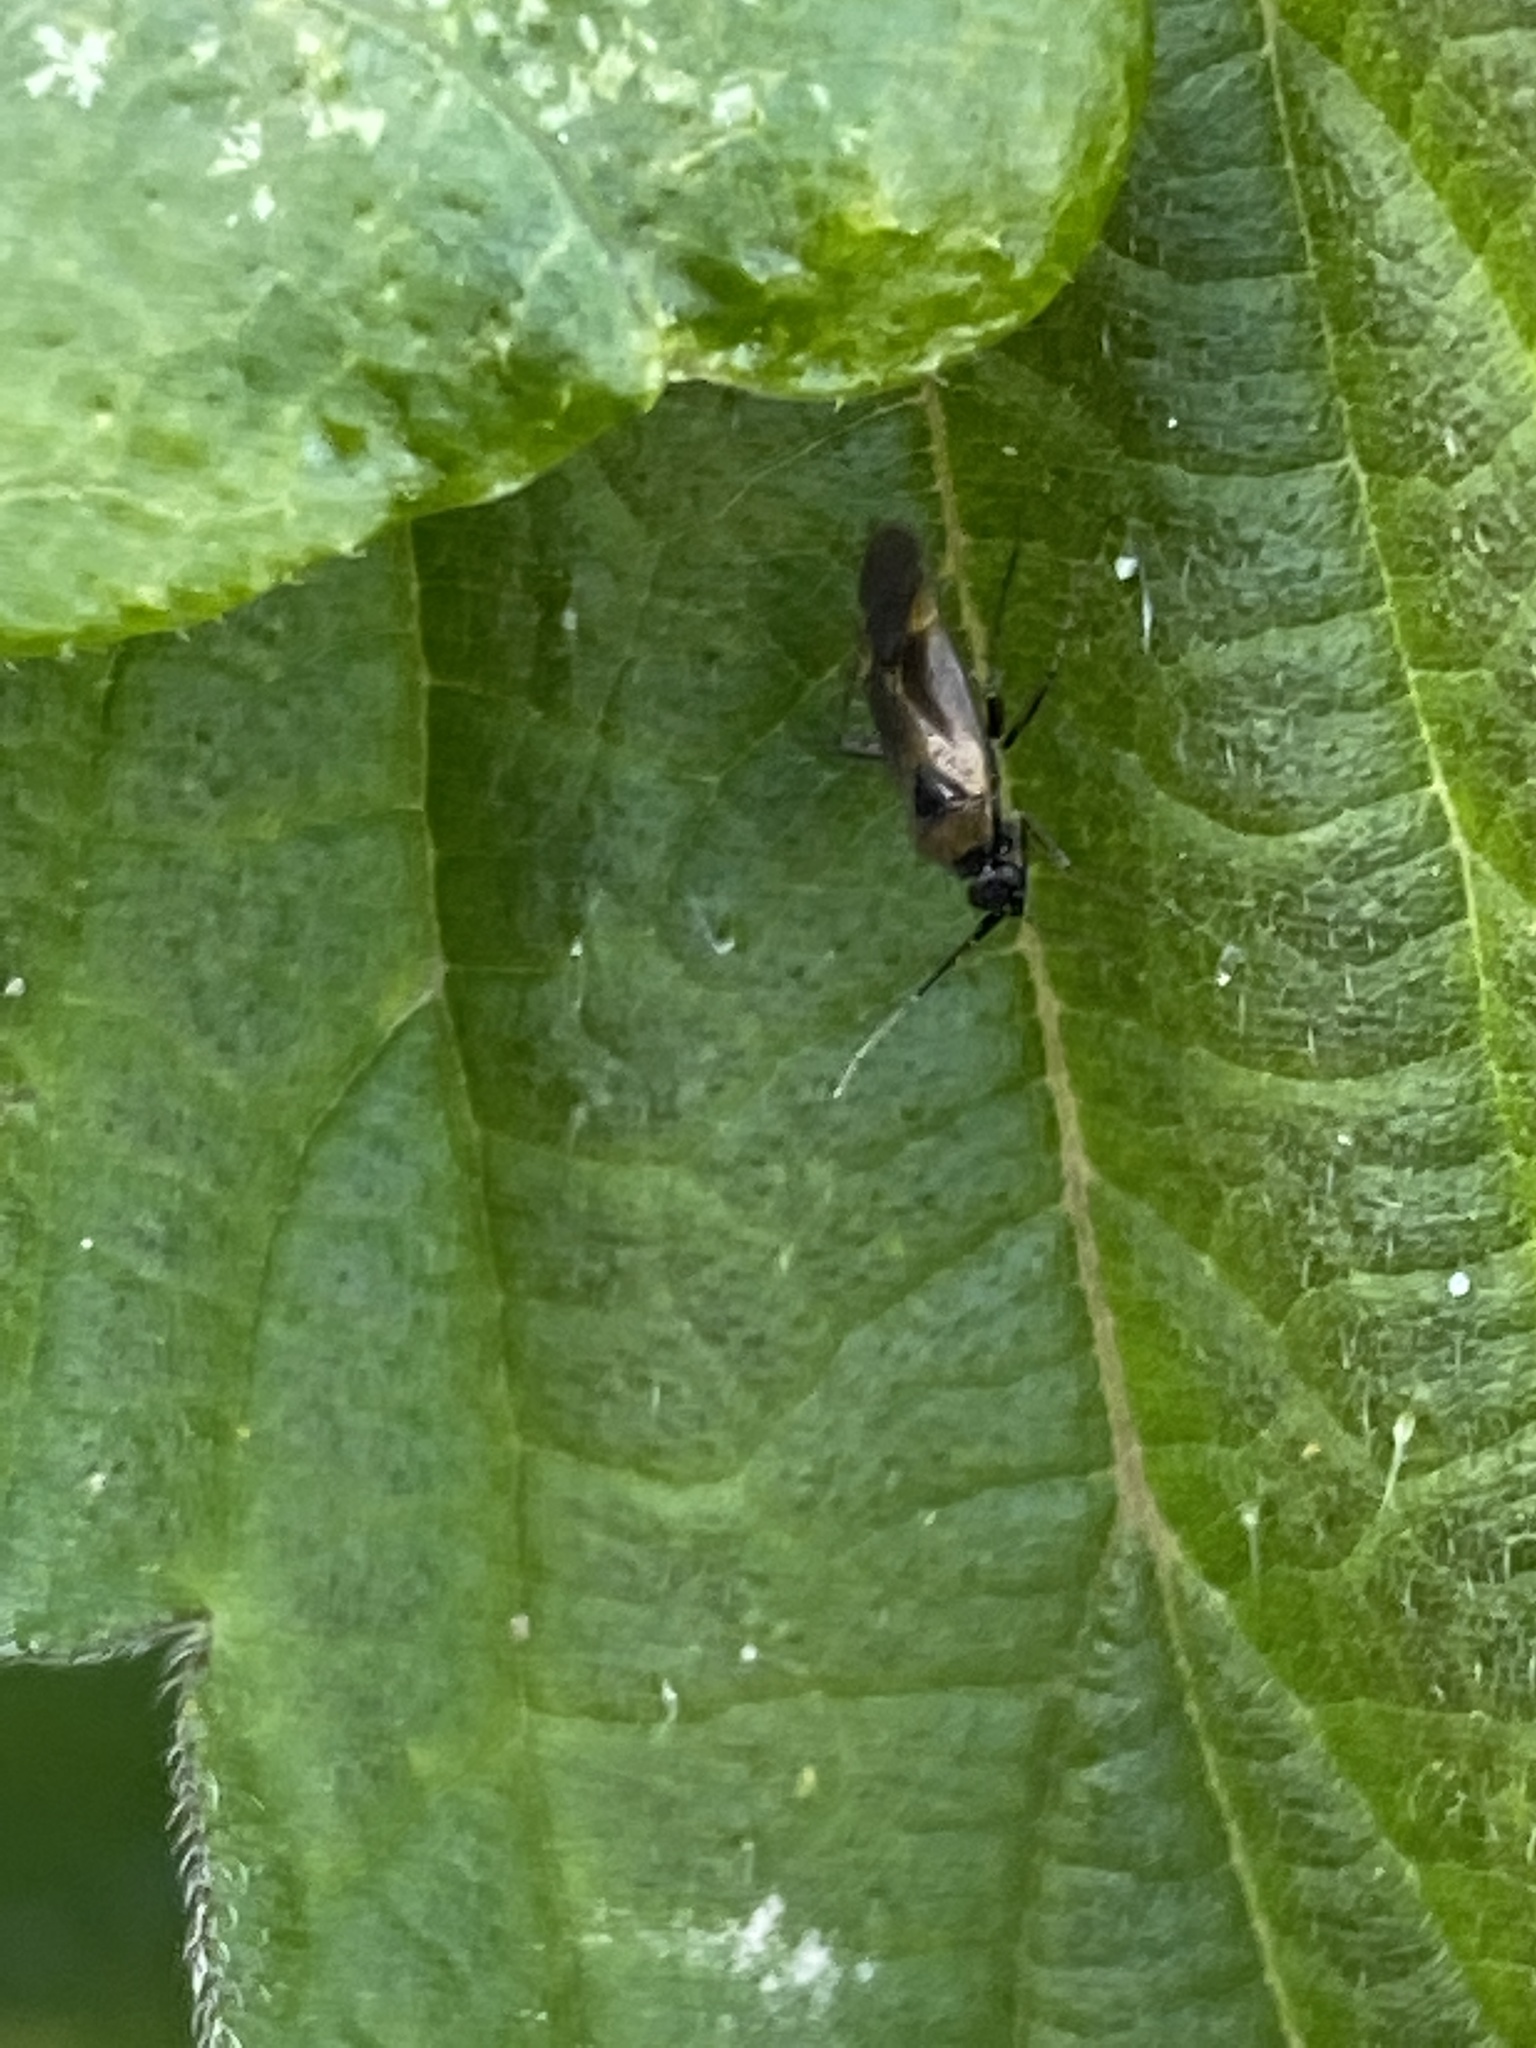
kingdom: Animalia
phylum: Arthropoda
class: Insecta
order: Hemiptera
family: Miridae
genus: Plagiognathus
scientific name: Plagiognathus arbustorum
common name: Plant bug
